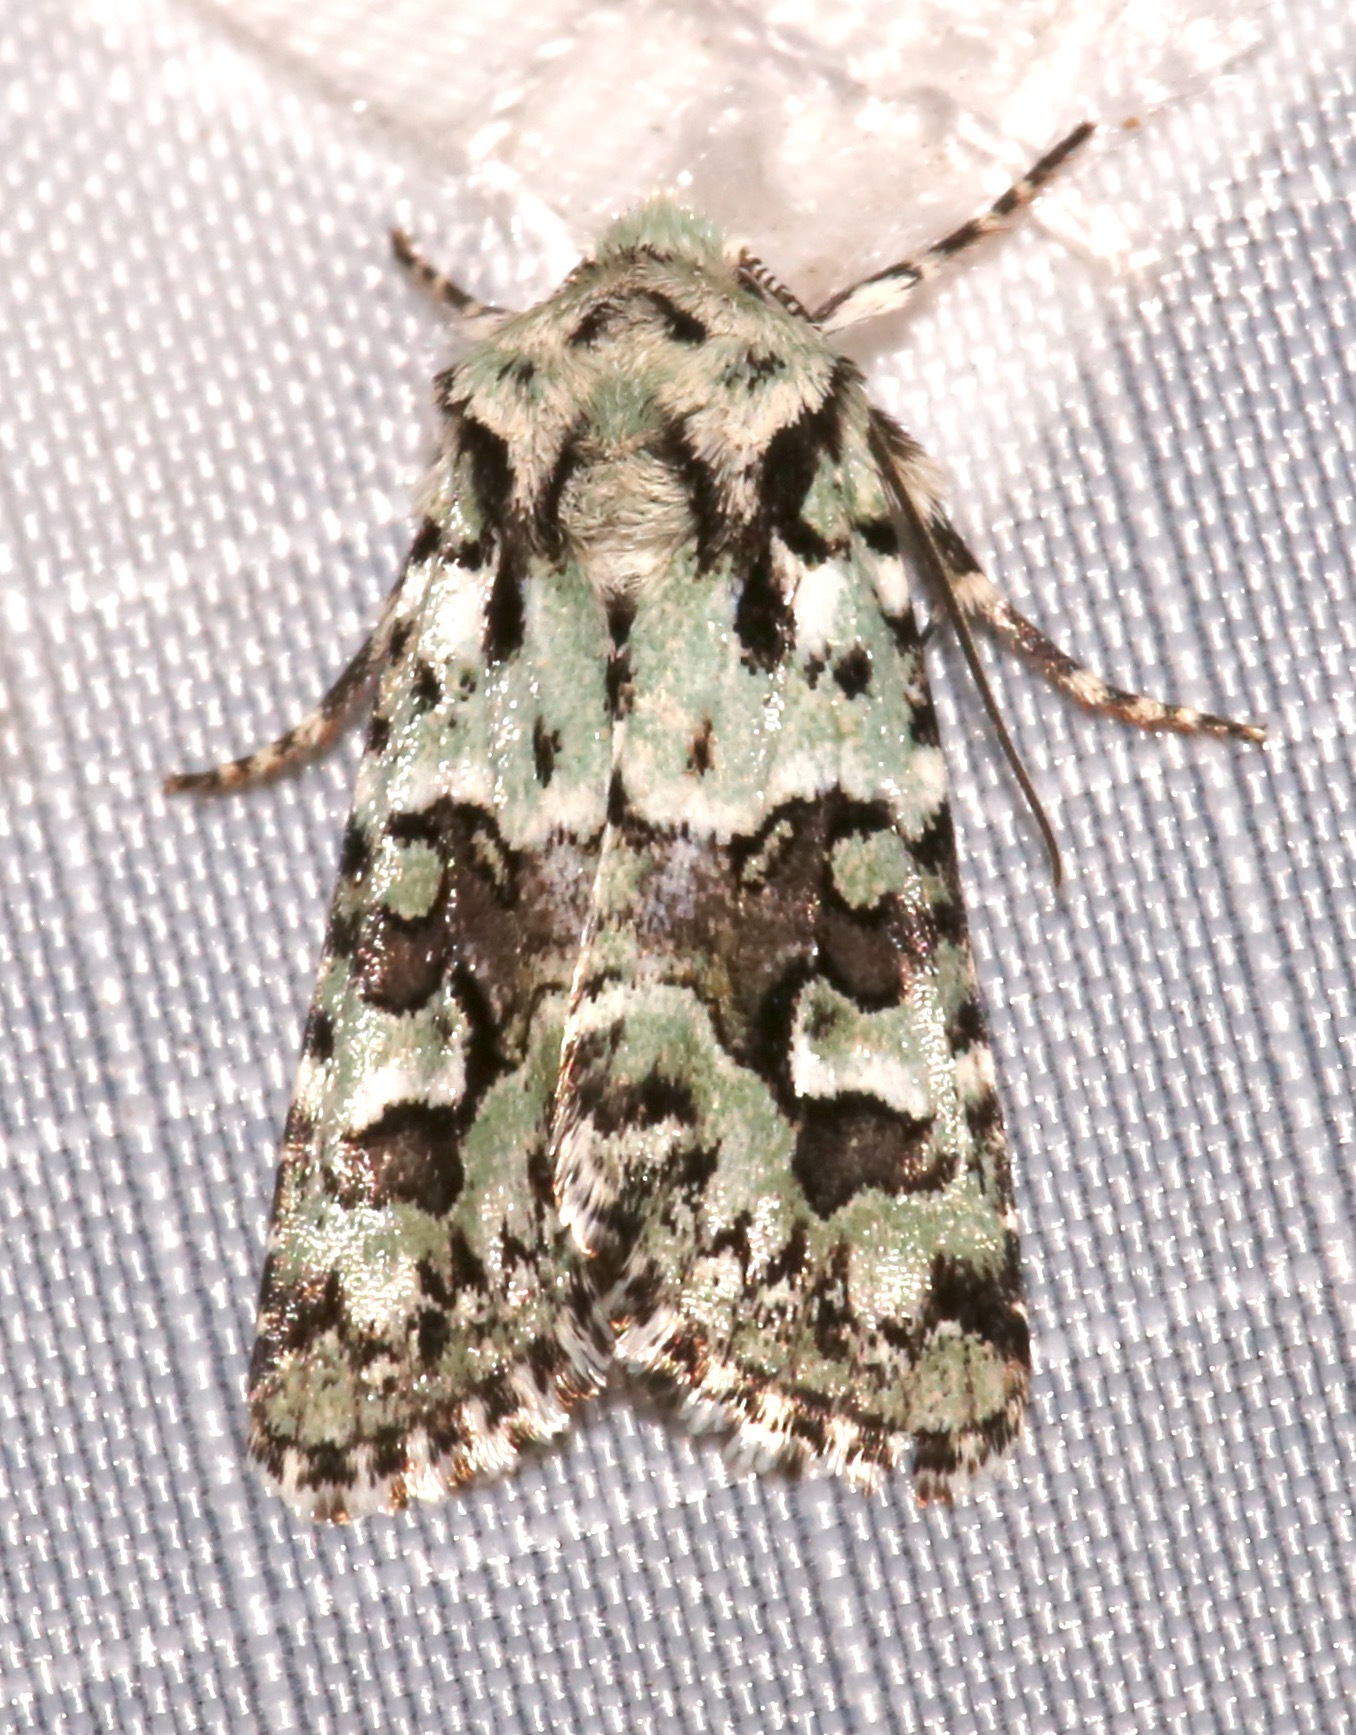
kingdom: Animalia
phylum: Arthropoda
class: Insecta
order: Lepidoptera
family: Noctuidae
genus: Lacinipolia
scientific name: Lacinipolia consimilis
